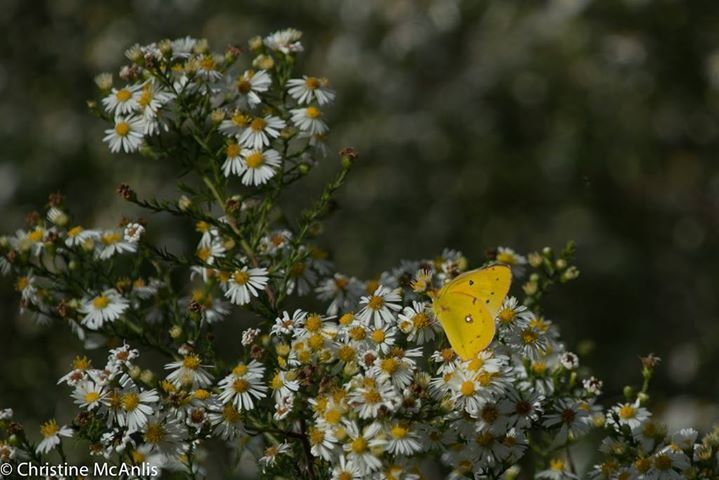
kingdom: Animalia
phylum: Arthropoda
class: Insecta
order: Lepidoptera
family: Pieridae
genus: Colias
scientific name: Colias eurytheme
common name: Alfalfa butterfly
